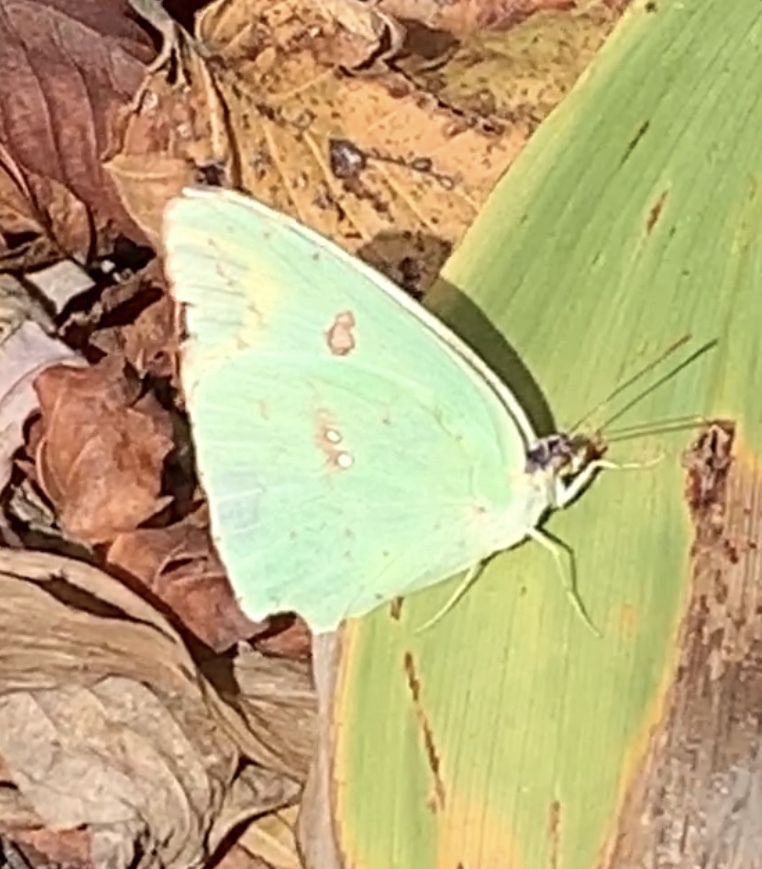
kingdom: Animalia
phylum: Arthropoda
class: Insecta
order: Lepidoptera
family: Pieridae
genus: Phoebis
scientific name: Phoebis sennae
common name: Cloudless sulphur
